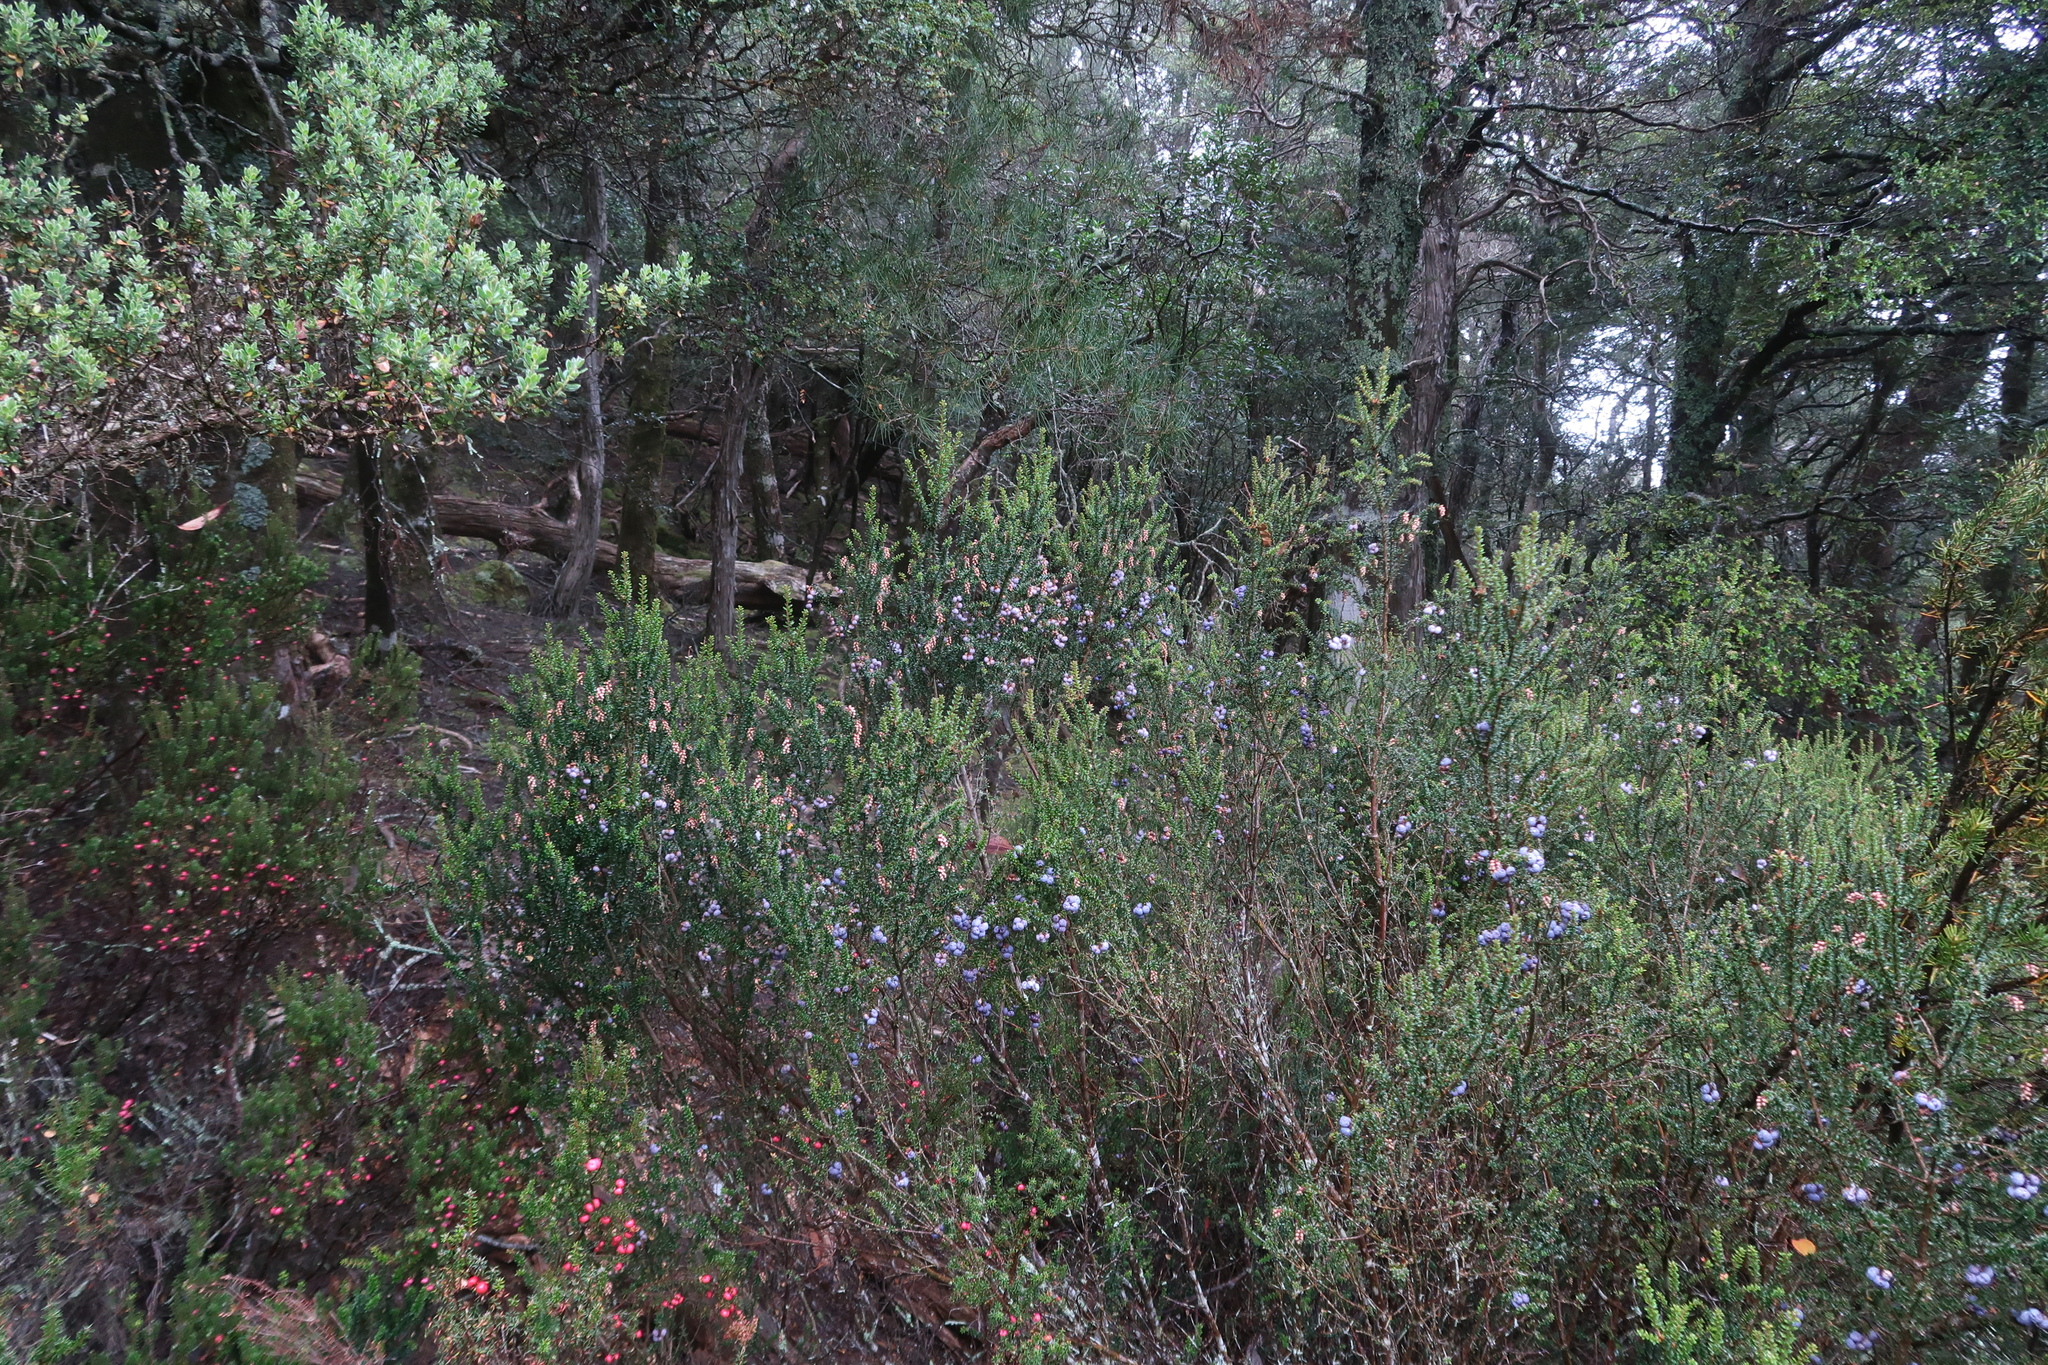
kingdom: Plantae
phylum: Tracheophyta
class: Magnoliopsida
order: Ericales
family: Ericaceae
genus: Trochocarpa
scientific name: Trochocarpa thymifolia
